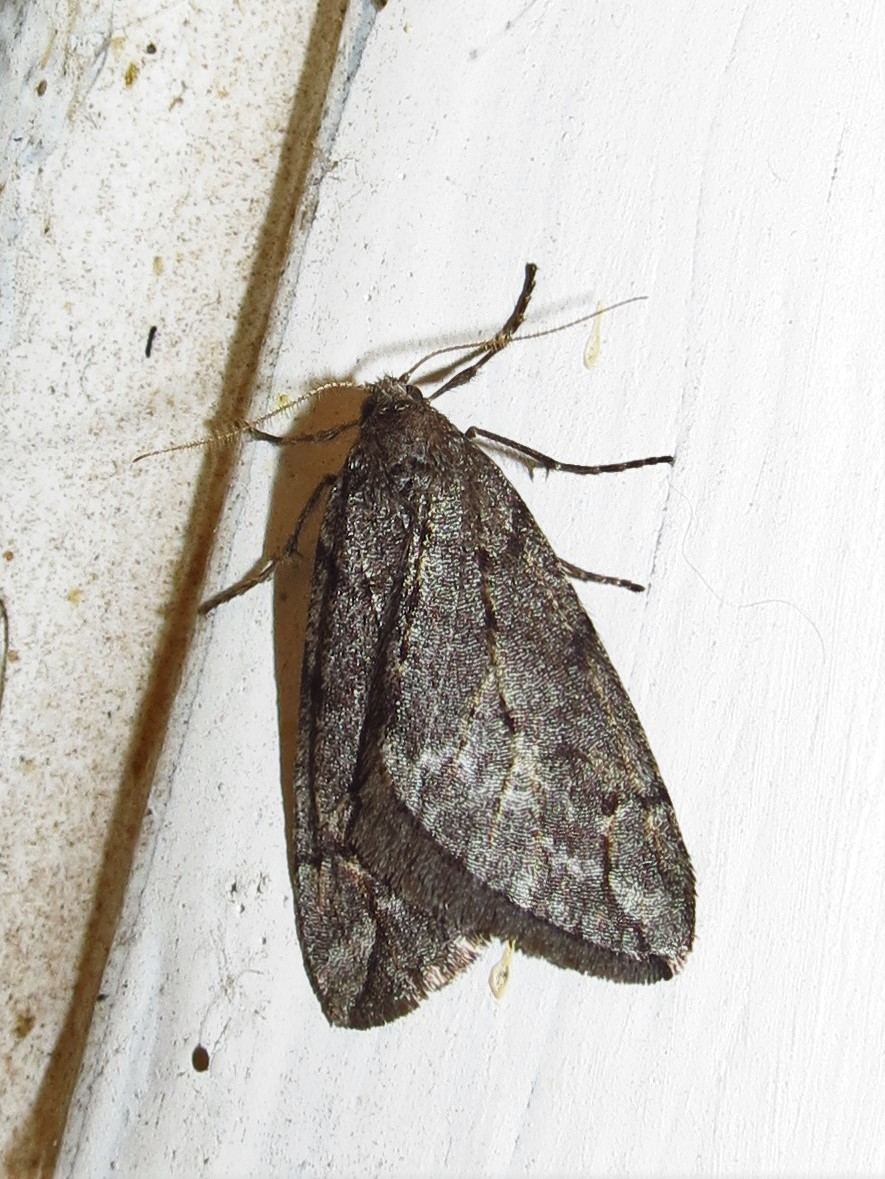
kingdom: Animalia
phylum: Arthropoda
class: Insecta
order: Lepidoptera
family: Geometridae
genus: Paleacrita
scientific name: Paleacrita vernata
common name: Spring cankerworm
